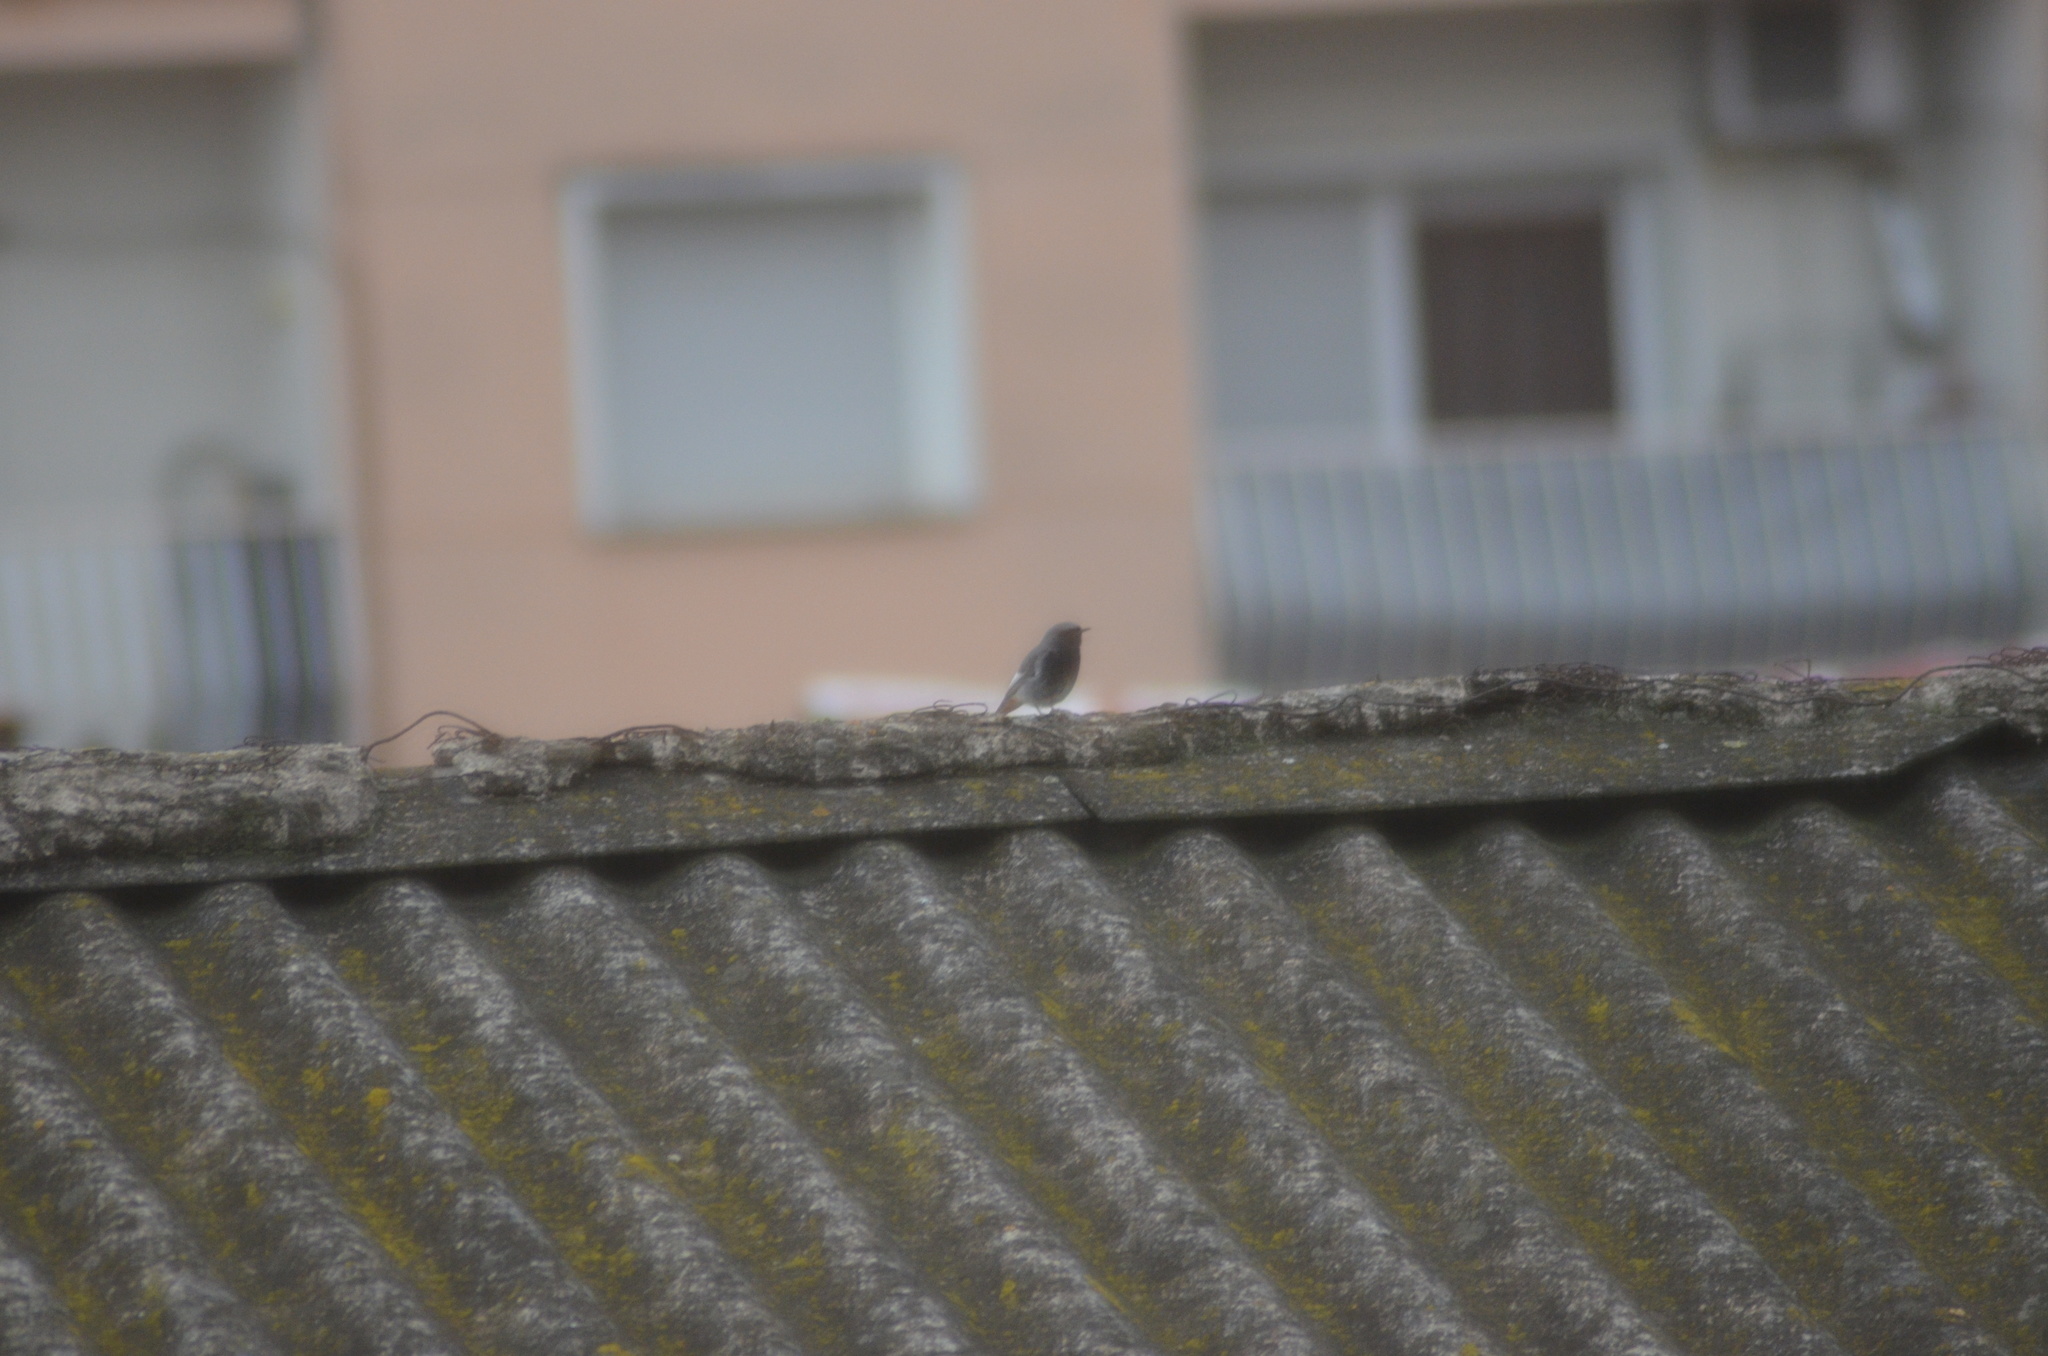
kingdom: Animalia
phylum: Chordata
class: Aves
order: Passeriformes
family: Muscicapidae
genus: Phoenicurus
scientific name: Phoenicurus ochruros
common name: Black redstart
